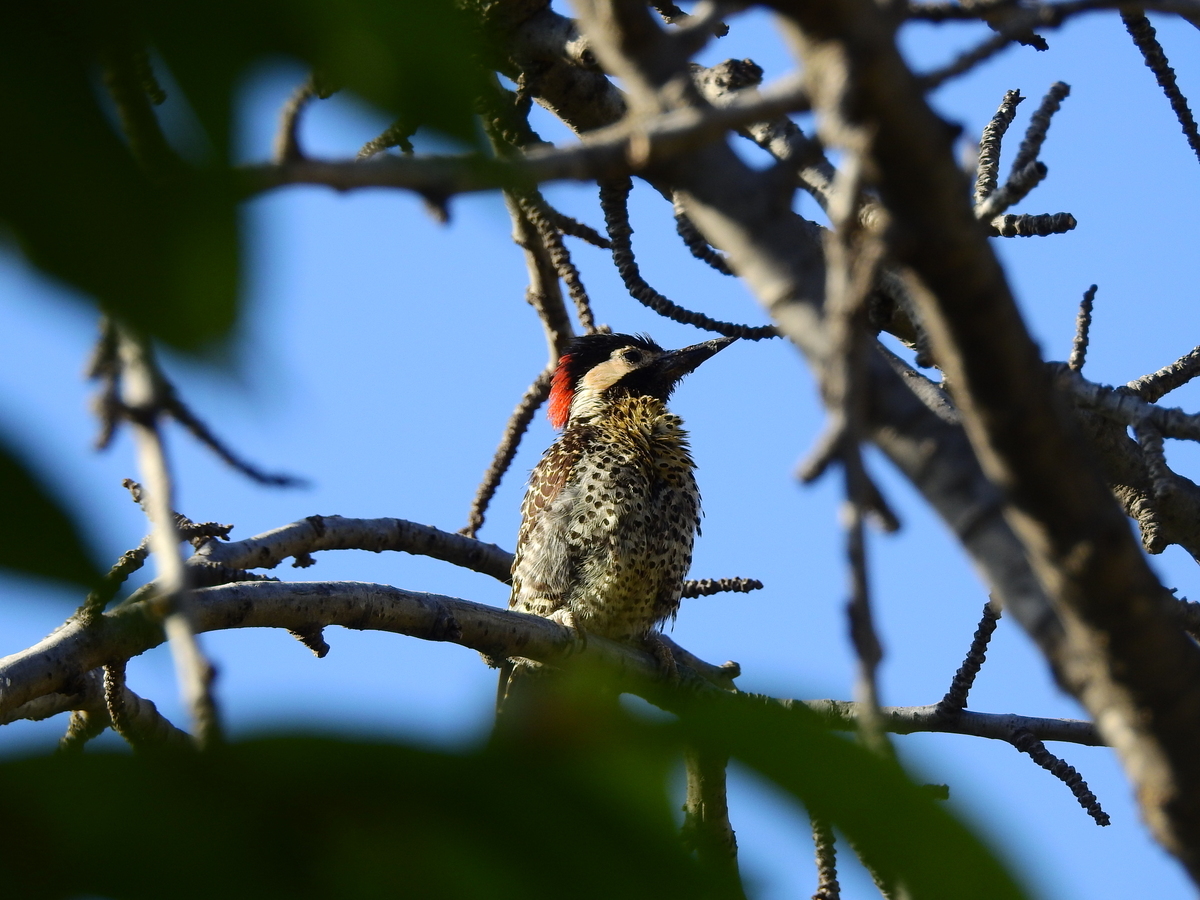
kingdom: Animalia
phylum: Chordata
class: Aves
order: Piciformes
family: Picidae
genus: Colaptes
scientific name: Colaptes melanochloros
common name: Green-barred woodpecker
